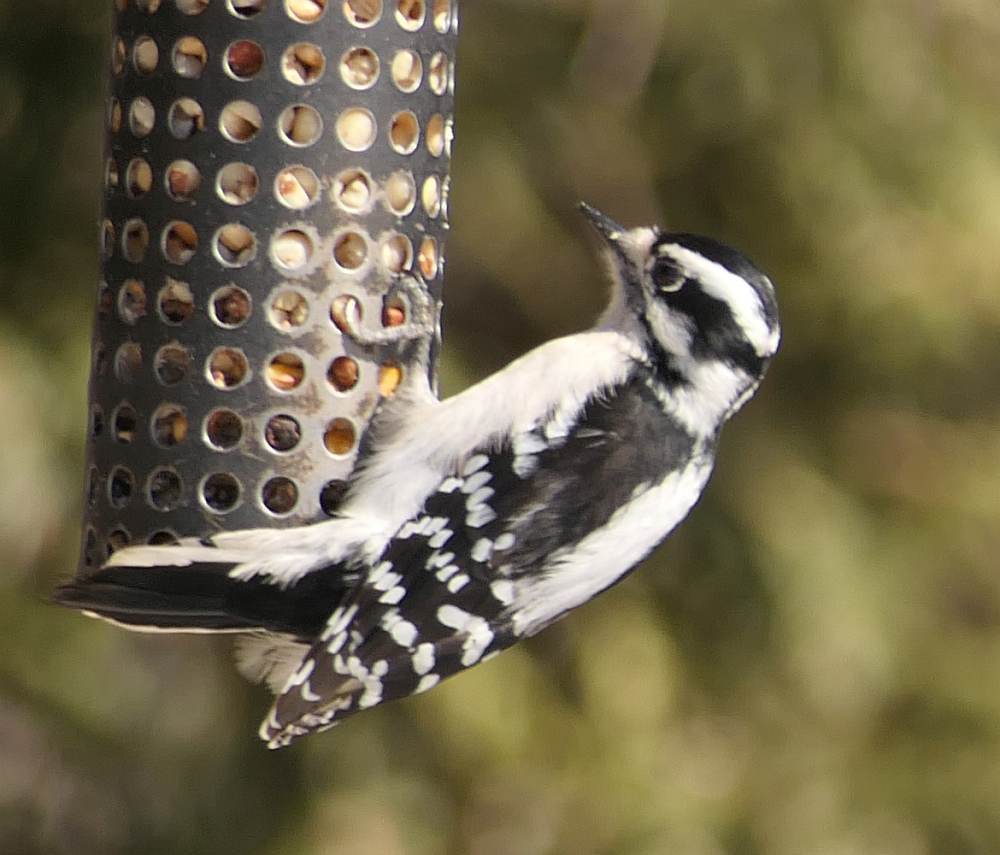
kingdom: Animalia
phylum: Chordata
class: Aves
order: Piciformes
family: Picidae
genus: Dryobates
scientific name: Dryobates pubescens
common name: Downy woodpecker
